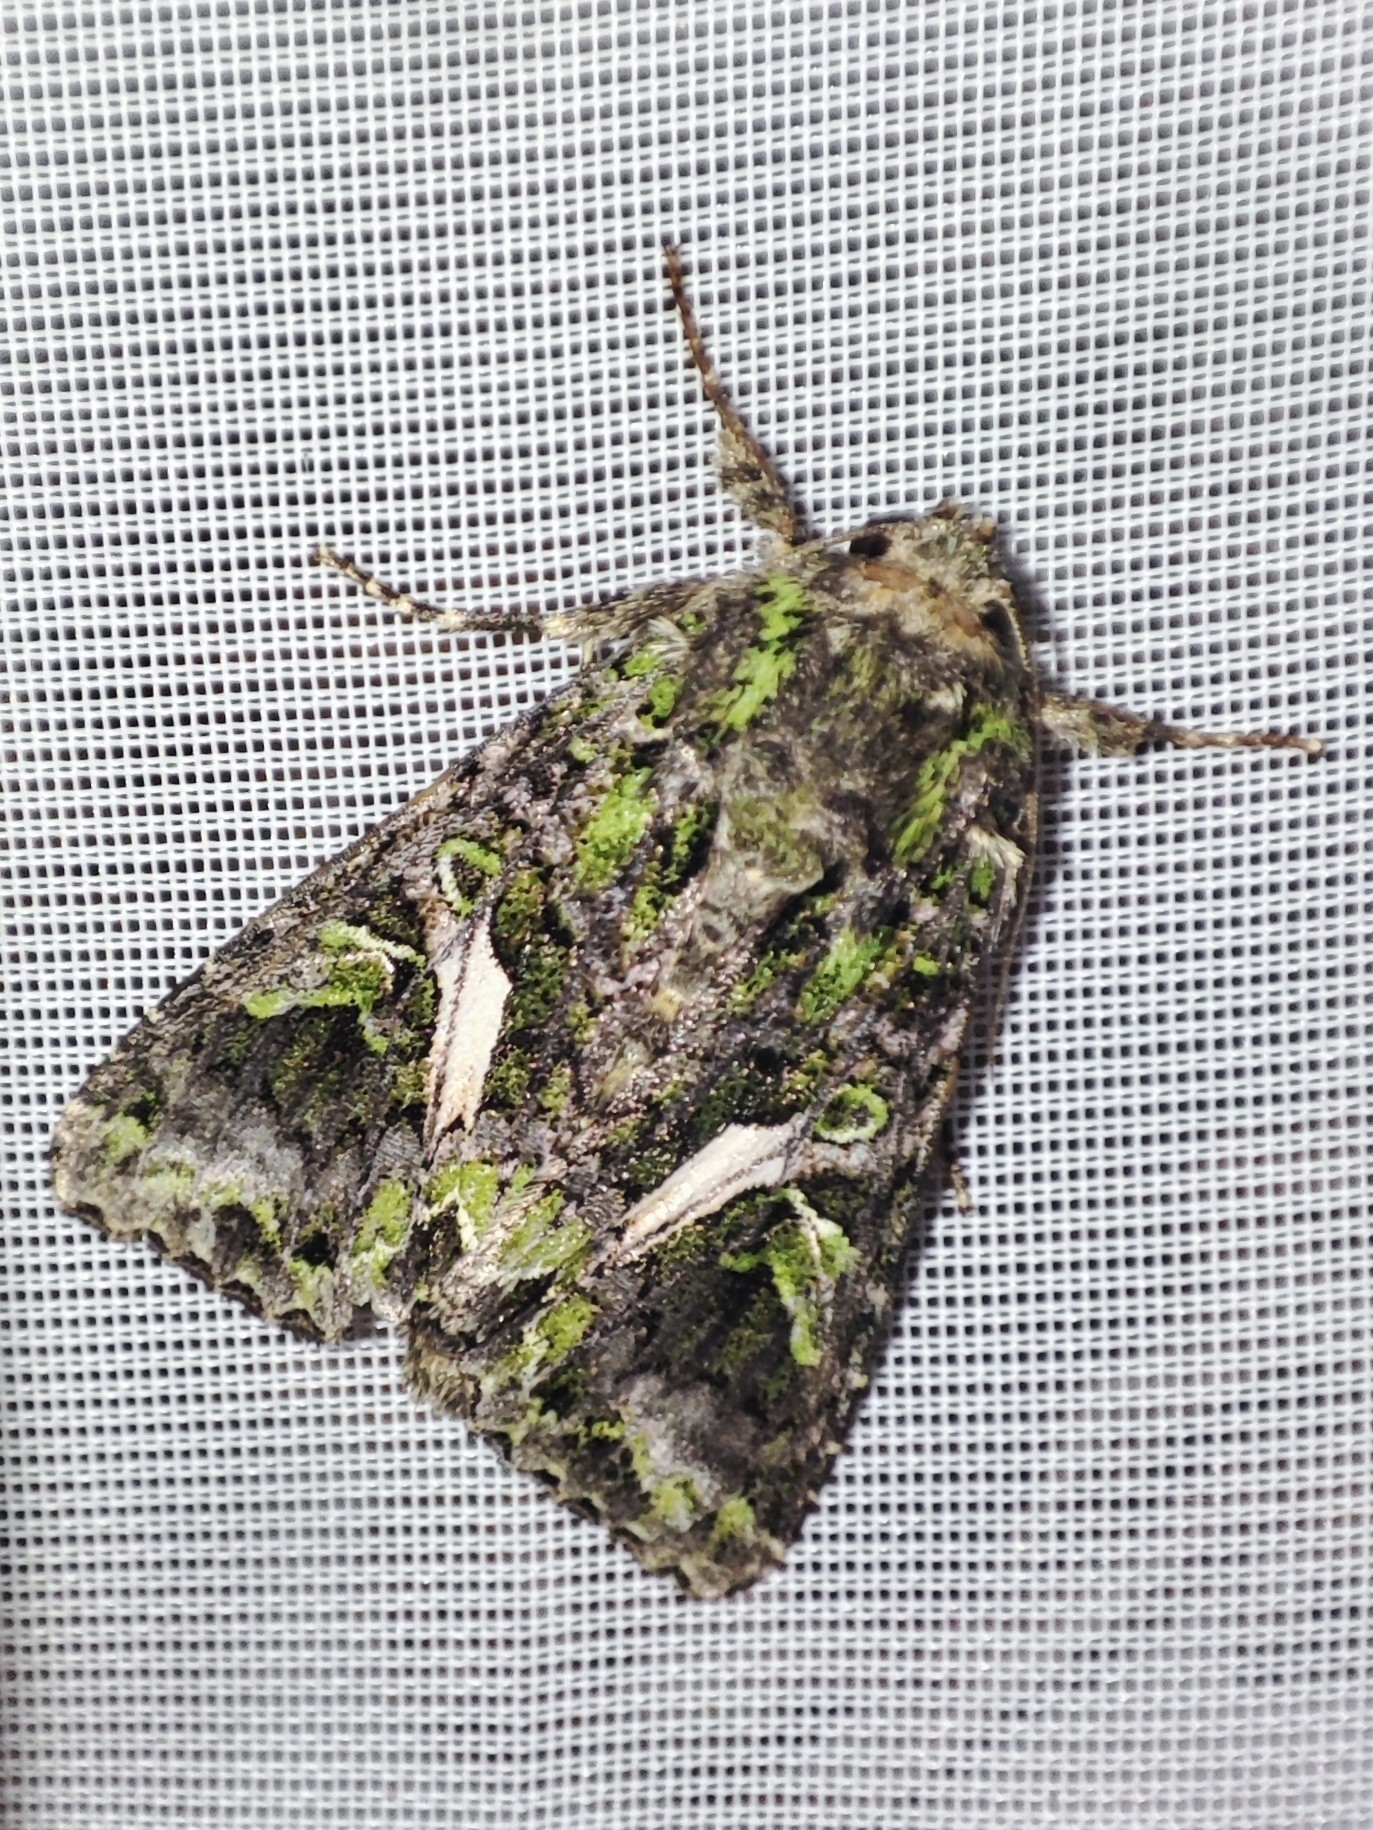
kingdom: Animalia
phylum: Arthropoda
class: Insecta
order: Lepidoptera
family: Noctuidae
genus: Trachea
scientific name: Trachea atriplicis
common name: Orache moth
